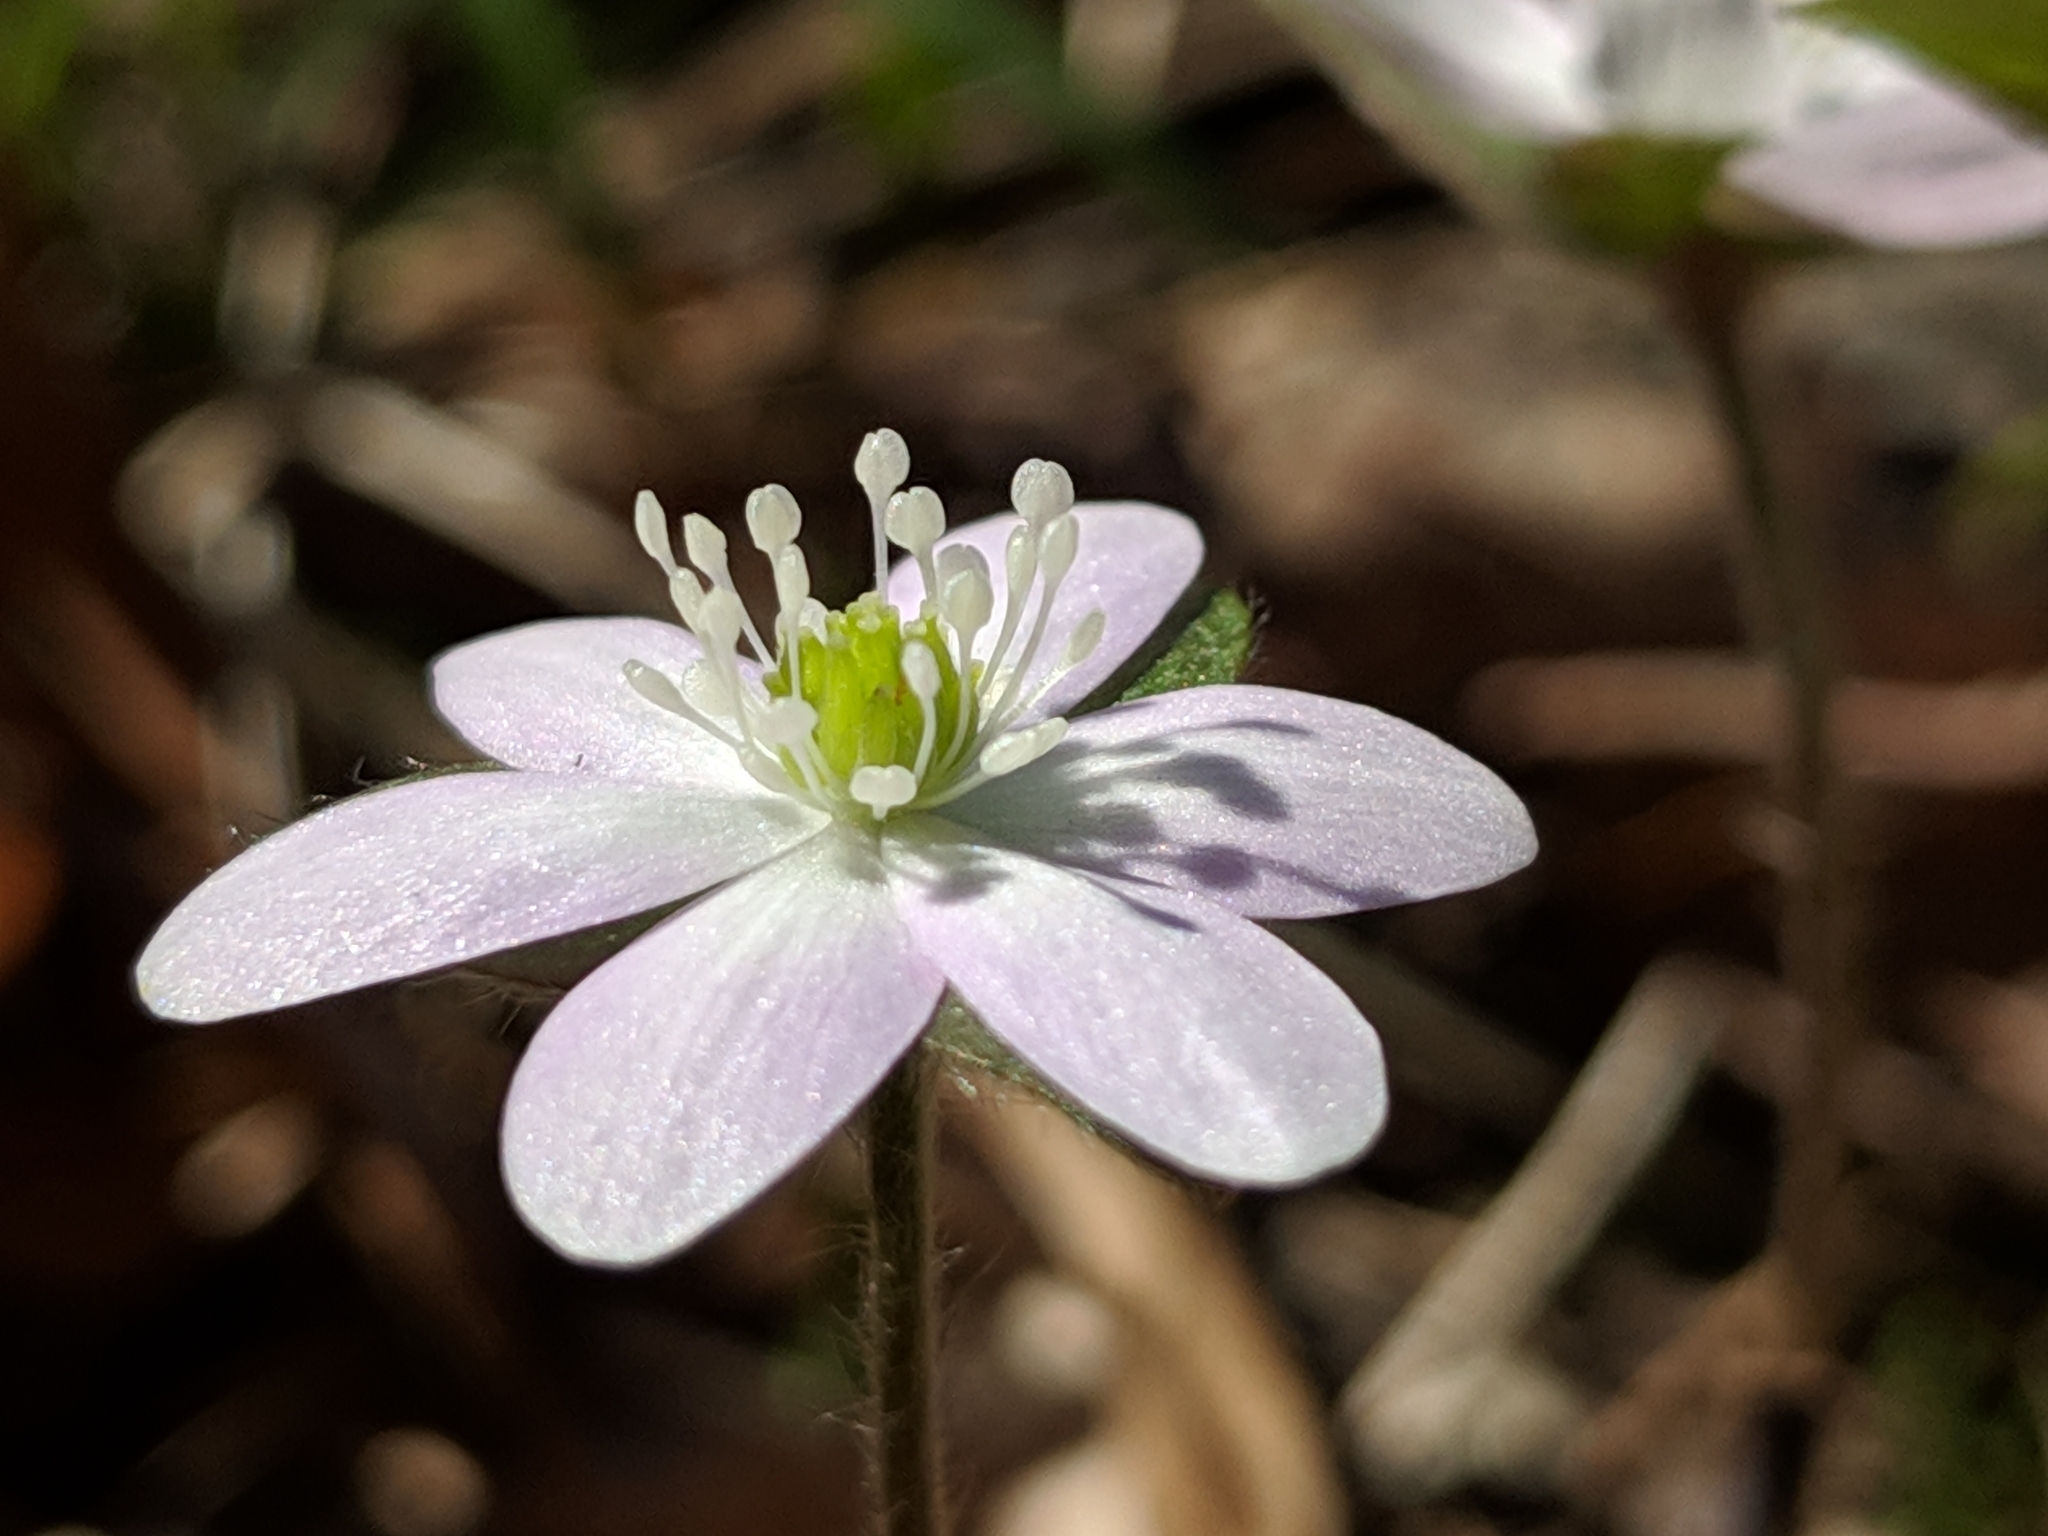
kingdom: Plantae
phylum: Tracheophyta
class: Magnoliopsida
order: Ranunculales
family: Ranunculaceae
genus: Hepatica
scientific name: Hepatica acutiloba
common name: Sharp-lobed hepatica
